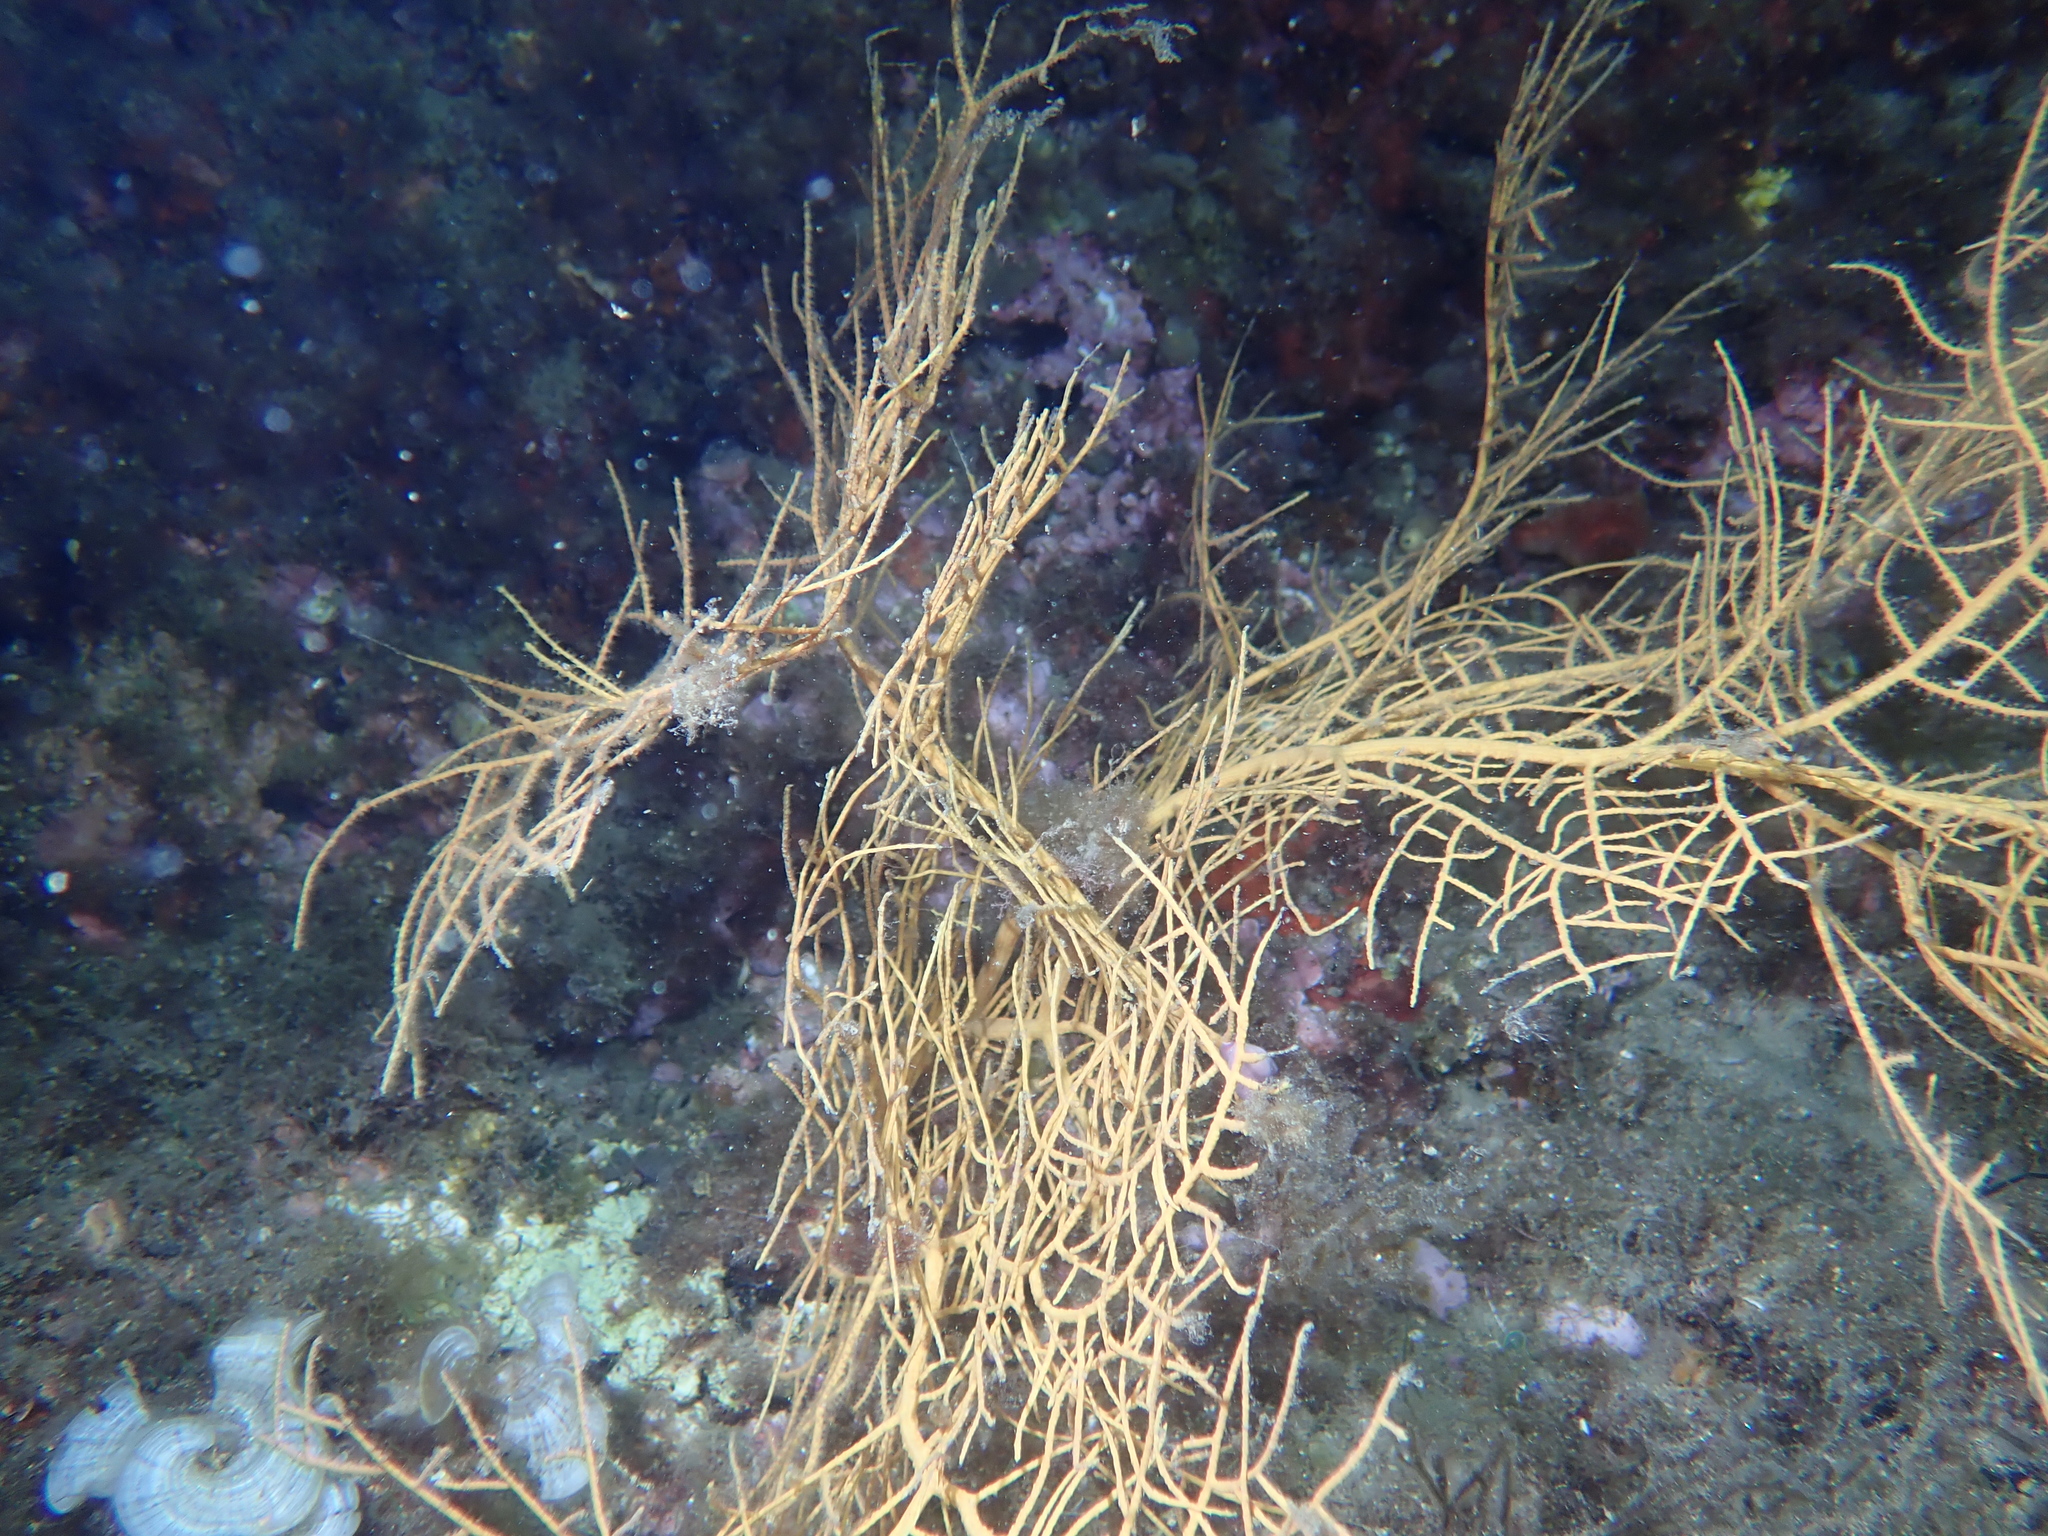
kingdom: Animalia
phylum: Cnidaria
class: Anthozoa
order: Malacalcyonacea
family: Gorgoniidae
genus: Leptogorgia
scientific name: Leptogorgia sarmentosa
